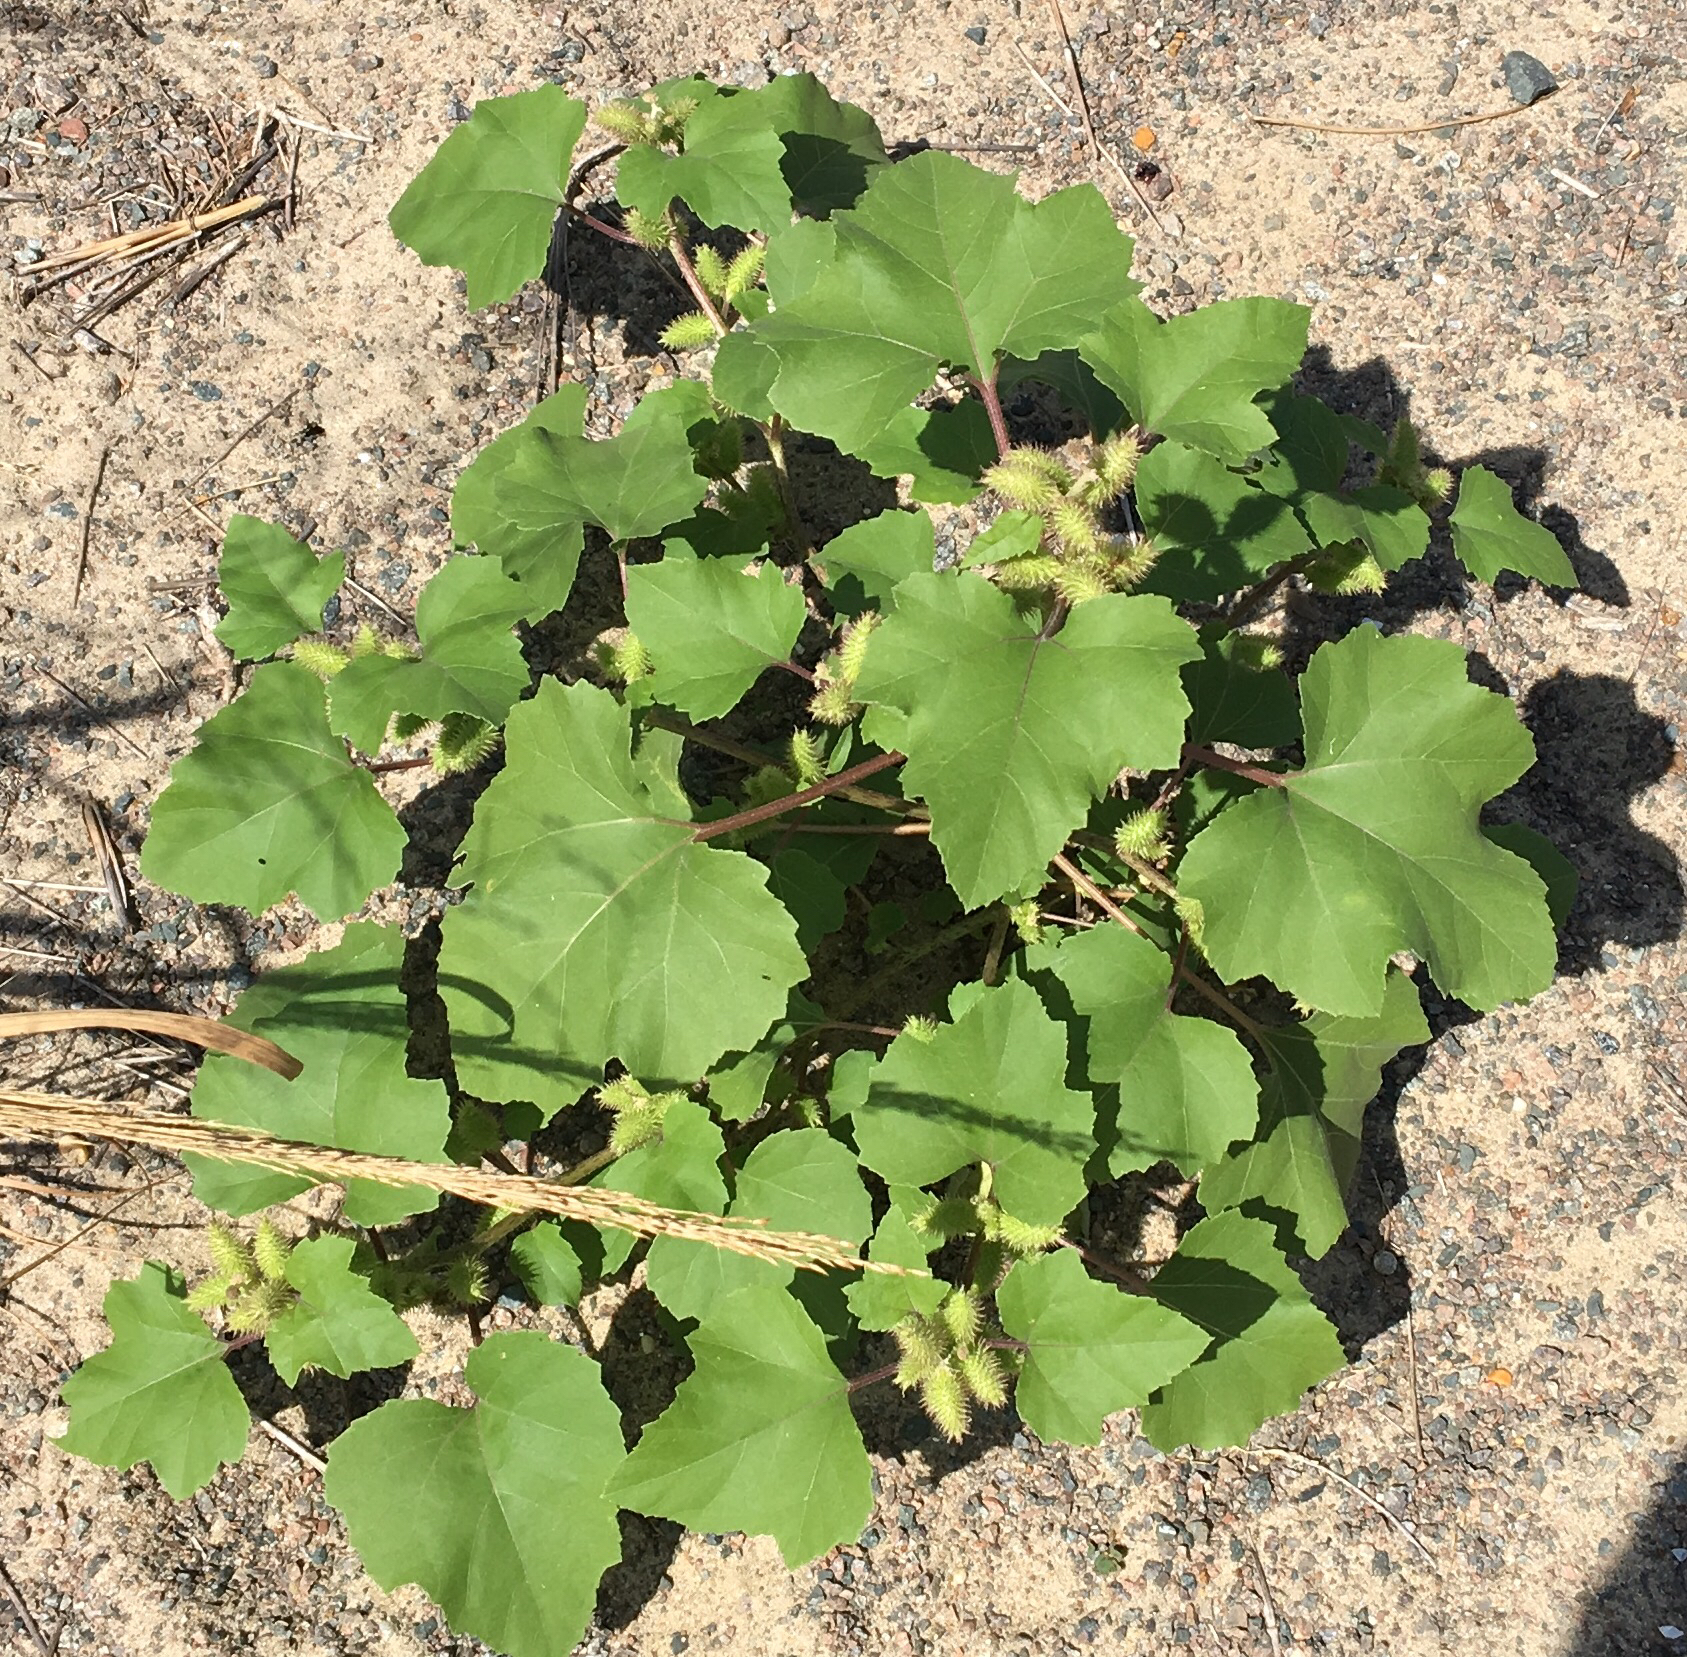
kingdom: Plantae
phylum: Tracheophyta
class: Magnoliopsida
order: Asterales
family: Asteraceae
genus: Xanthium
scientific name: Xanthium strumarium
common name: Rough cocklebur
